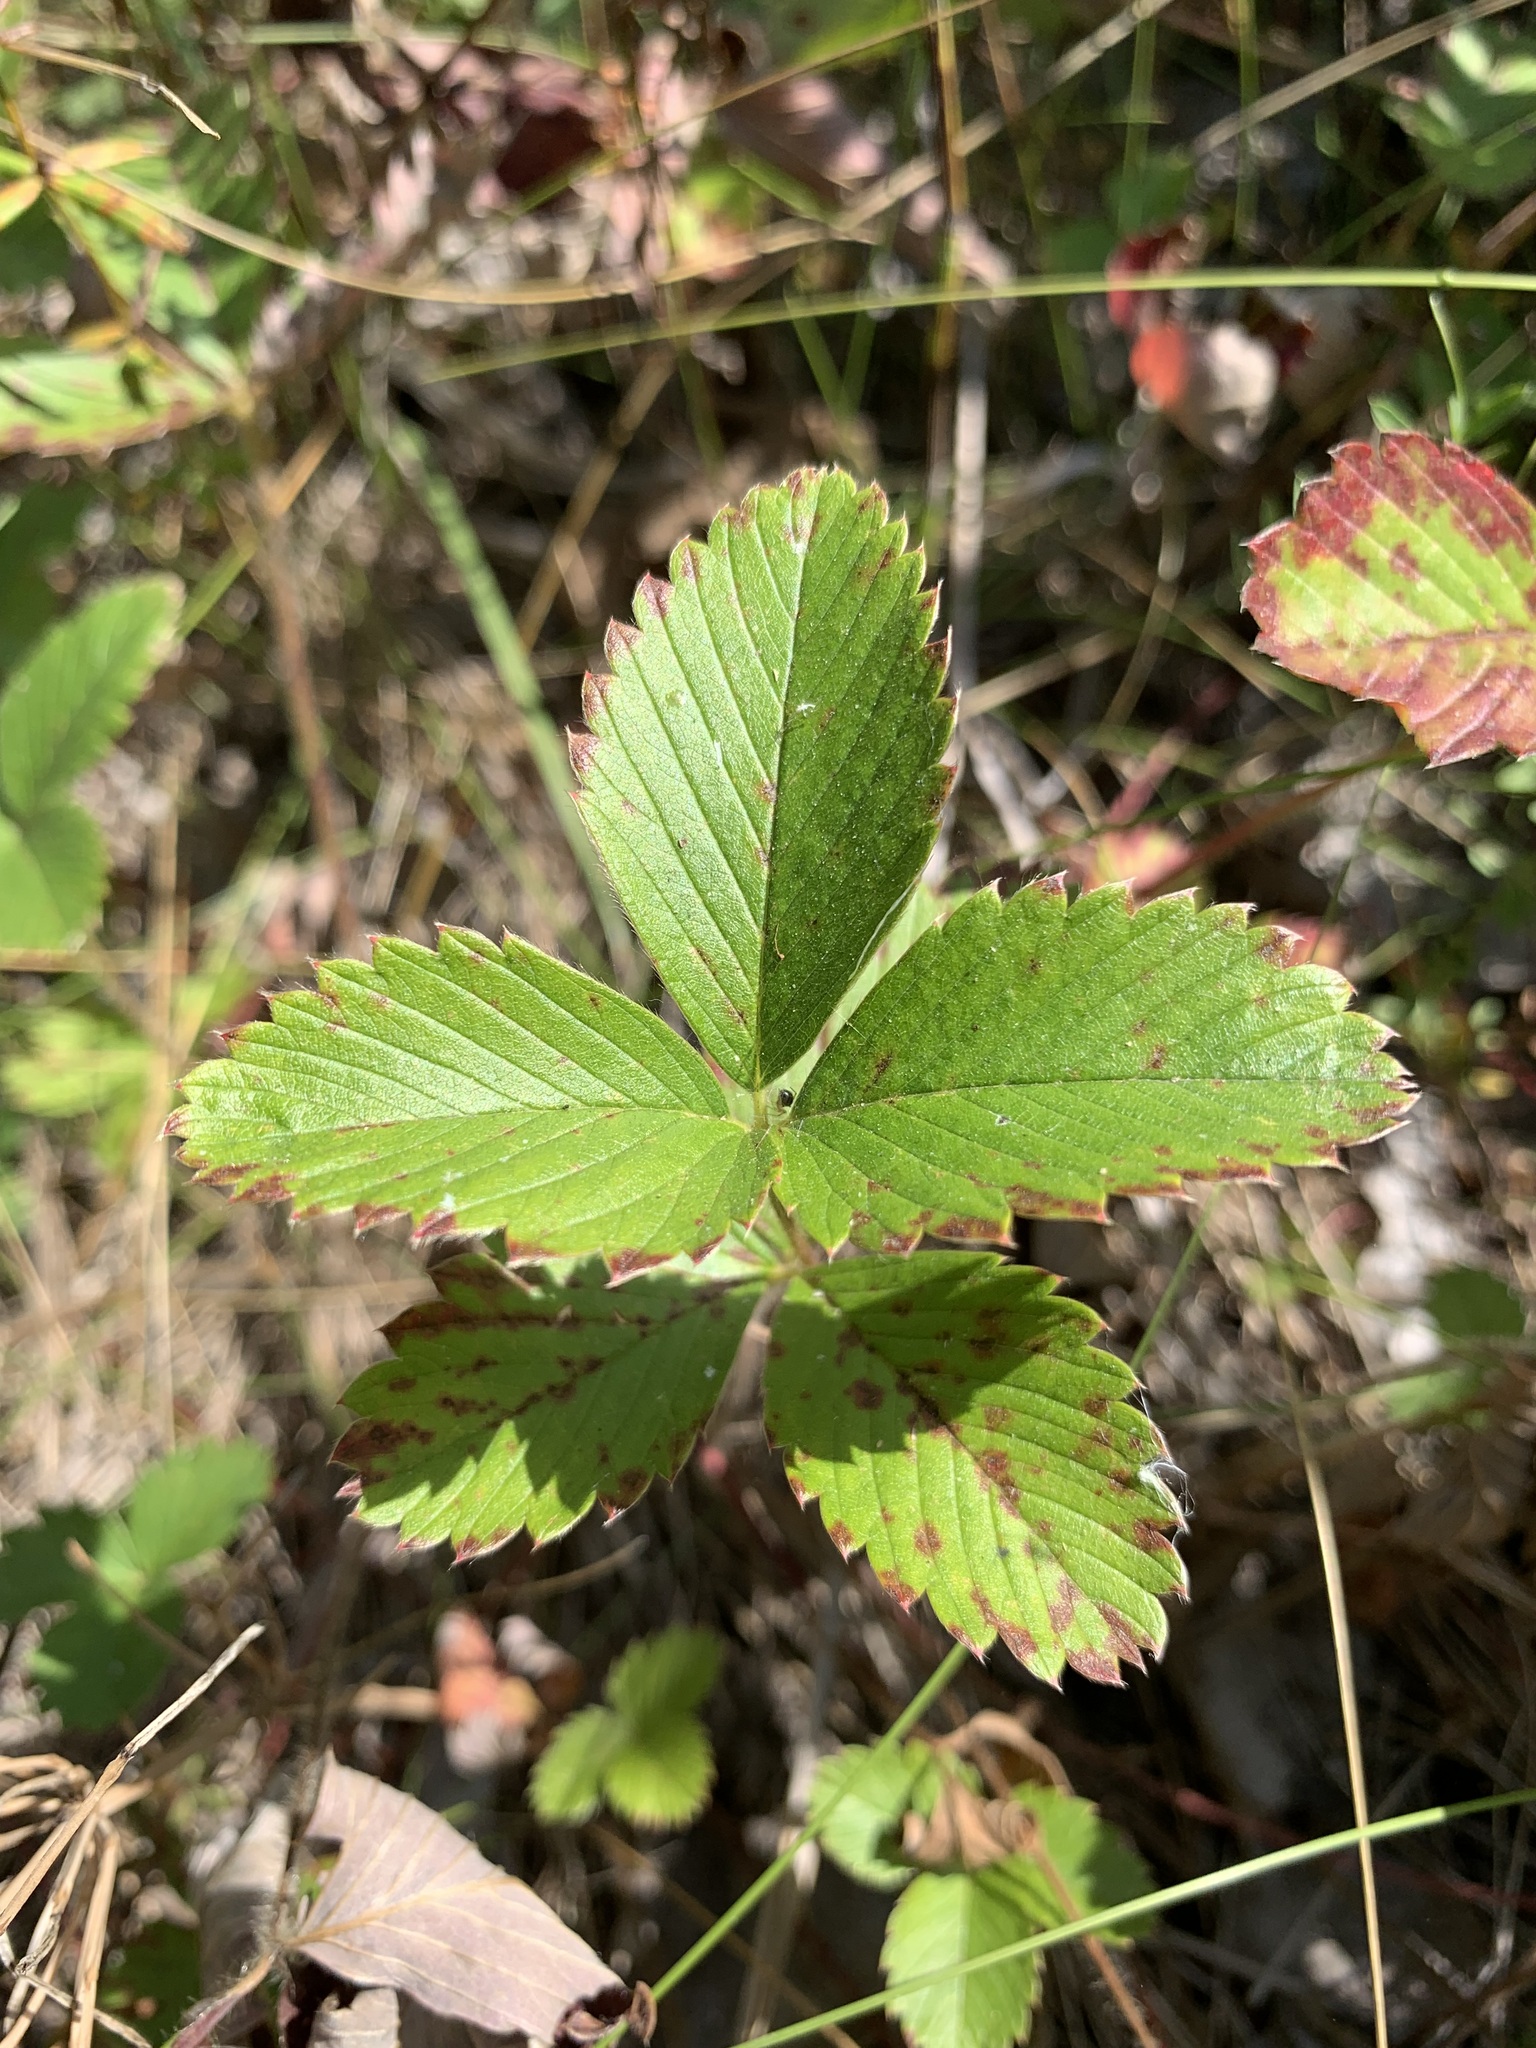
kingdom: Plantae
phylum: Tracheophyta
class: Magnoliopsida
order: Rosales
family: Rosaceae
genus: Fragaria
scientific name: Fragaria viridis
